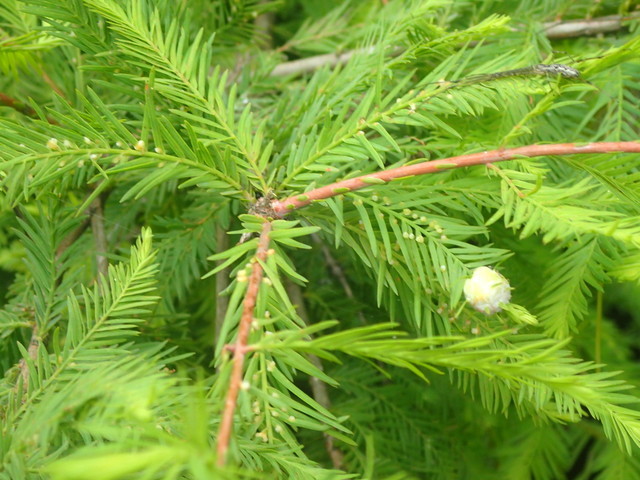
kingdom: Animalia
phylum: Arthropoda
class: Insecta
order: Diptera
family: Cecidomyiidae
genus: Taxodiomyia
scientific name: Taxodiomyia cupressiananassa
